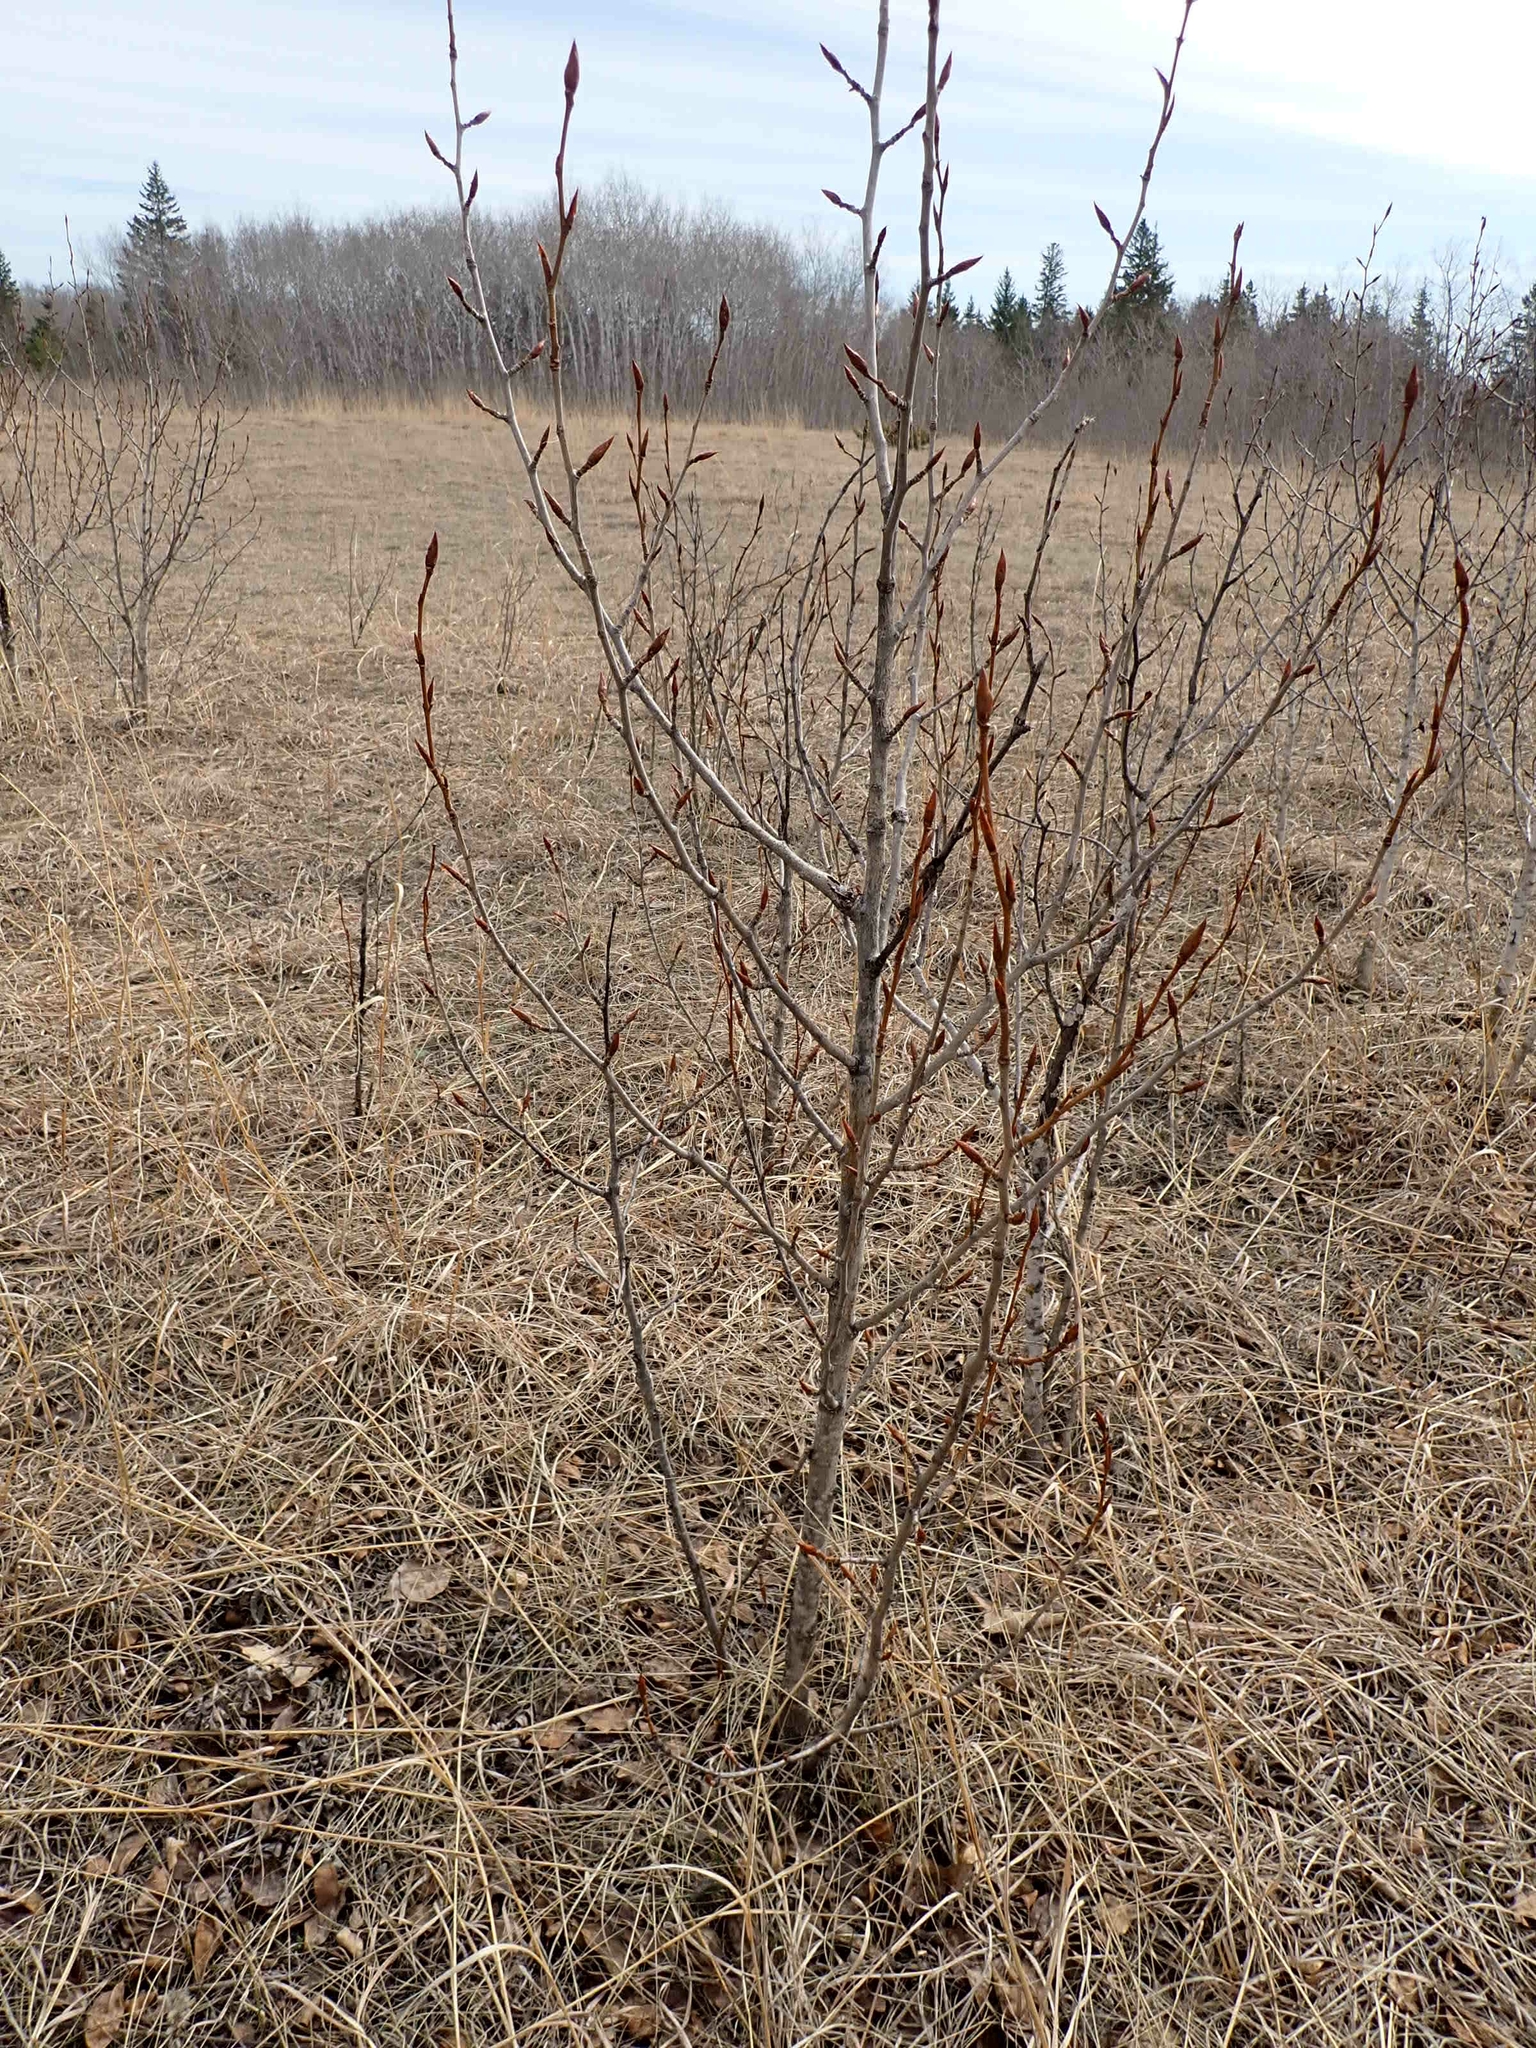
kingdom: Plantae
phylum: Tracheophyta
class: Magnoliopsida
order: Malpighiales
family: Salicaceae
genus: Populus
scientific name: Populus balsamifera
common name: Balsam poplar
